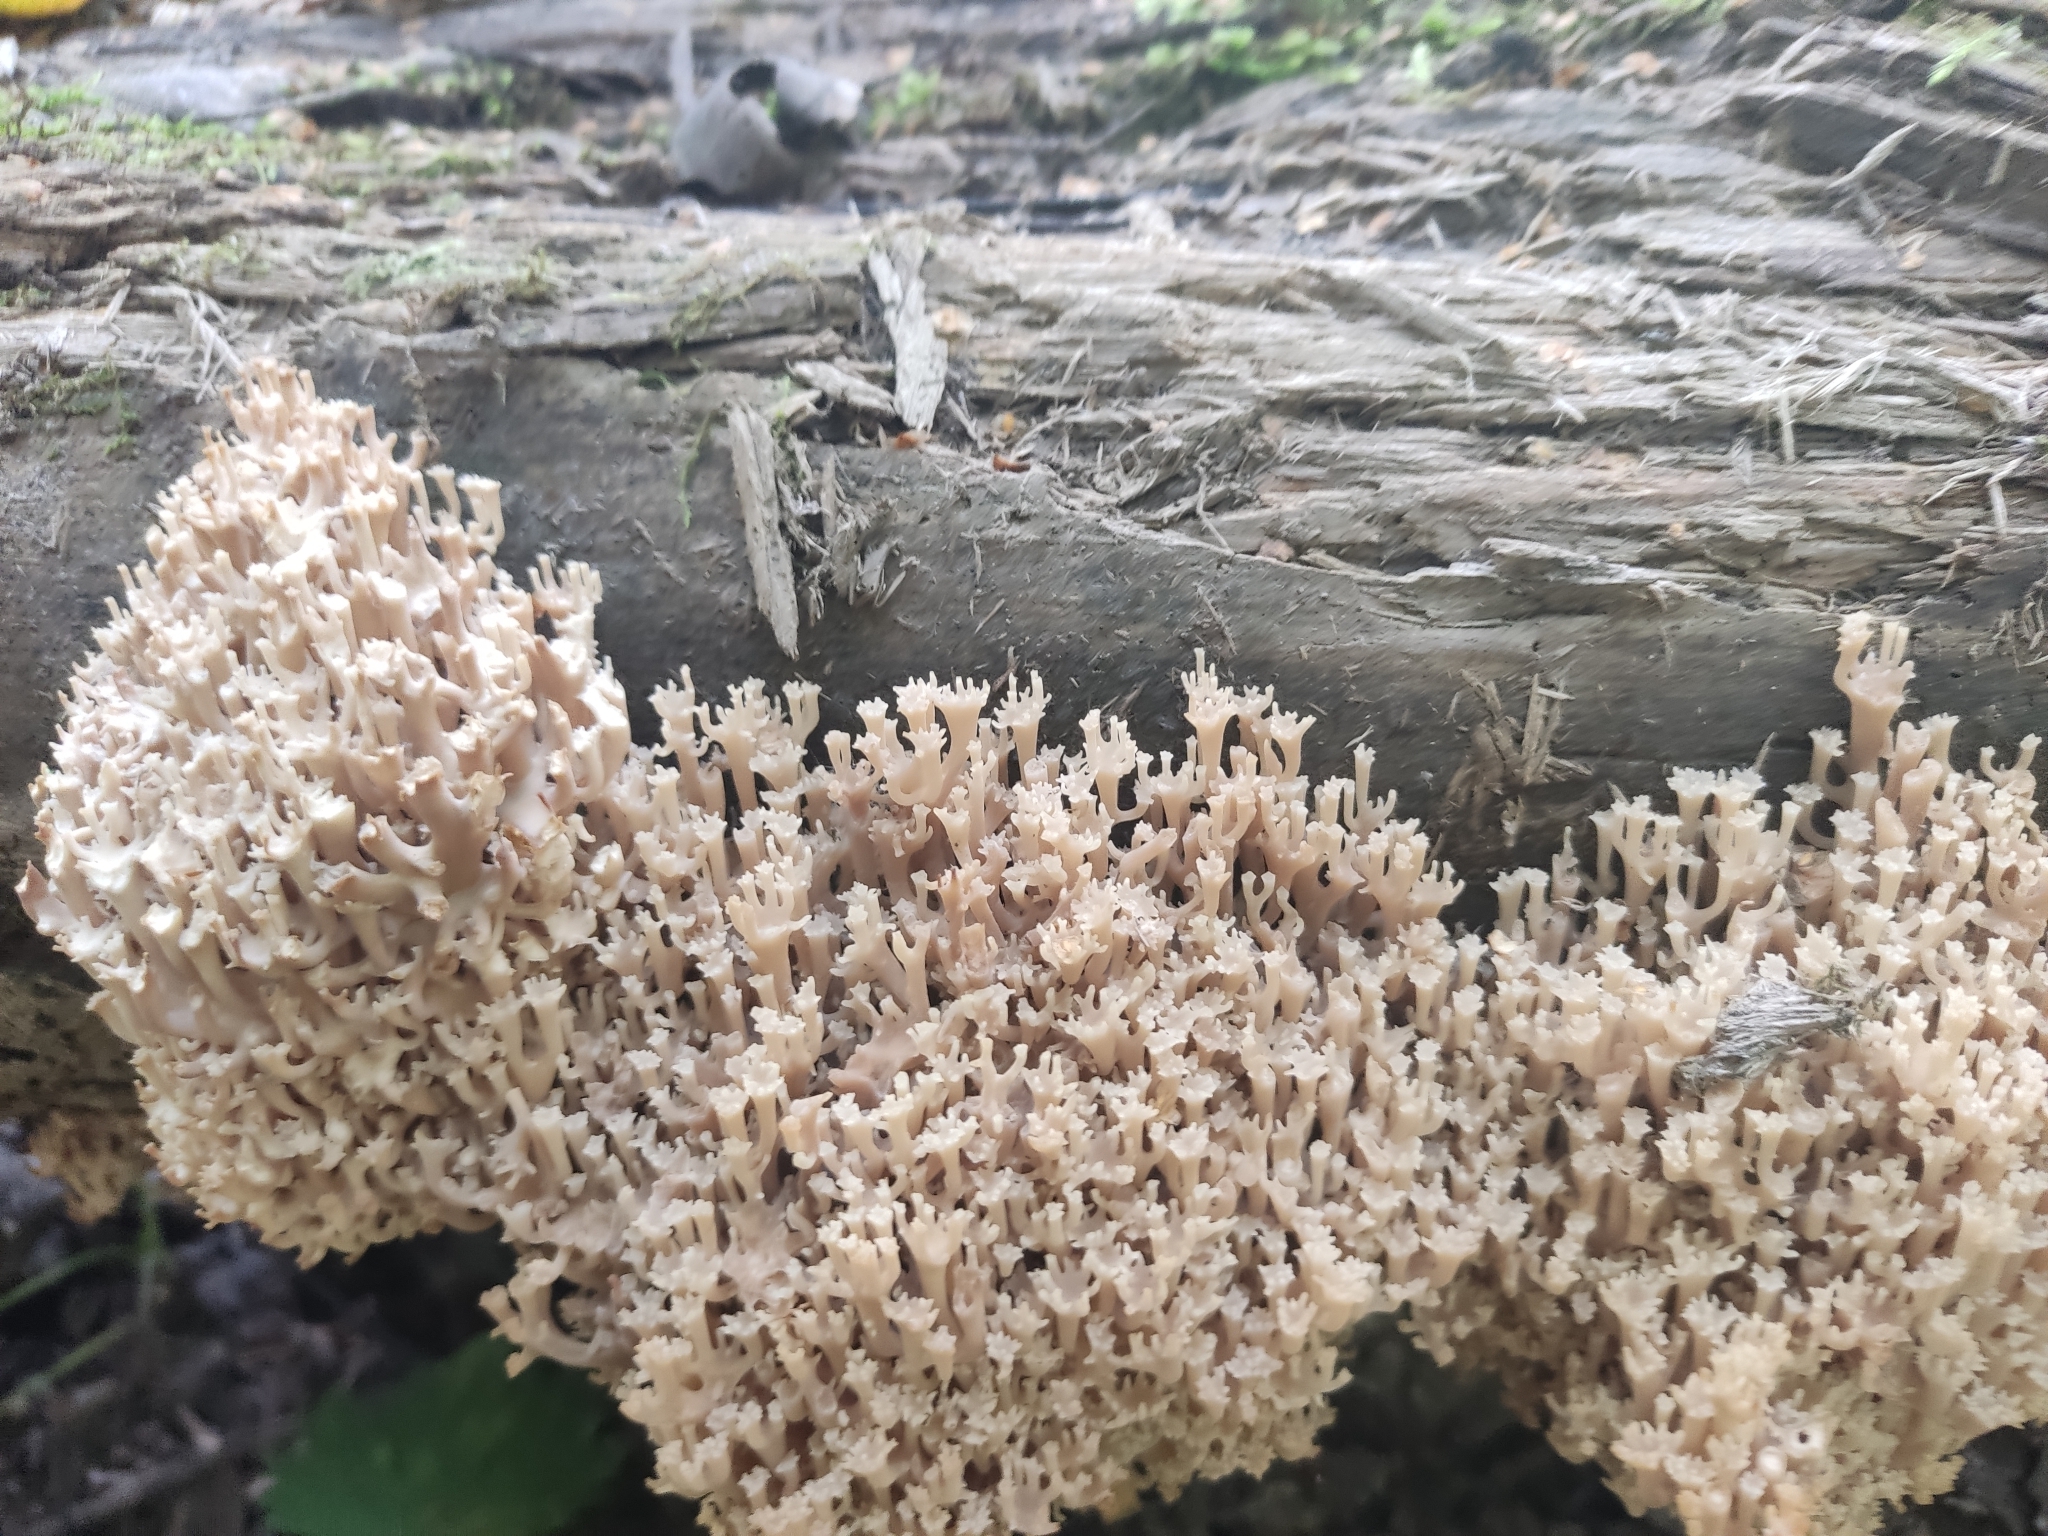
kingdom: Fungi
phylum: Basidiomycota
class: Agaricomycetes
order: Russulales
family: Auriscalpiaceae
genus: Artomyces
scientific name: Artomyces pyxidatus
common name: Crown-tipped coral fungus
